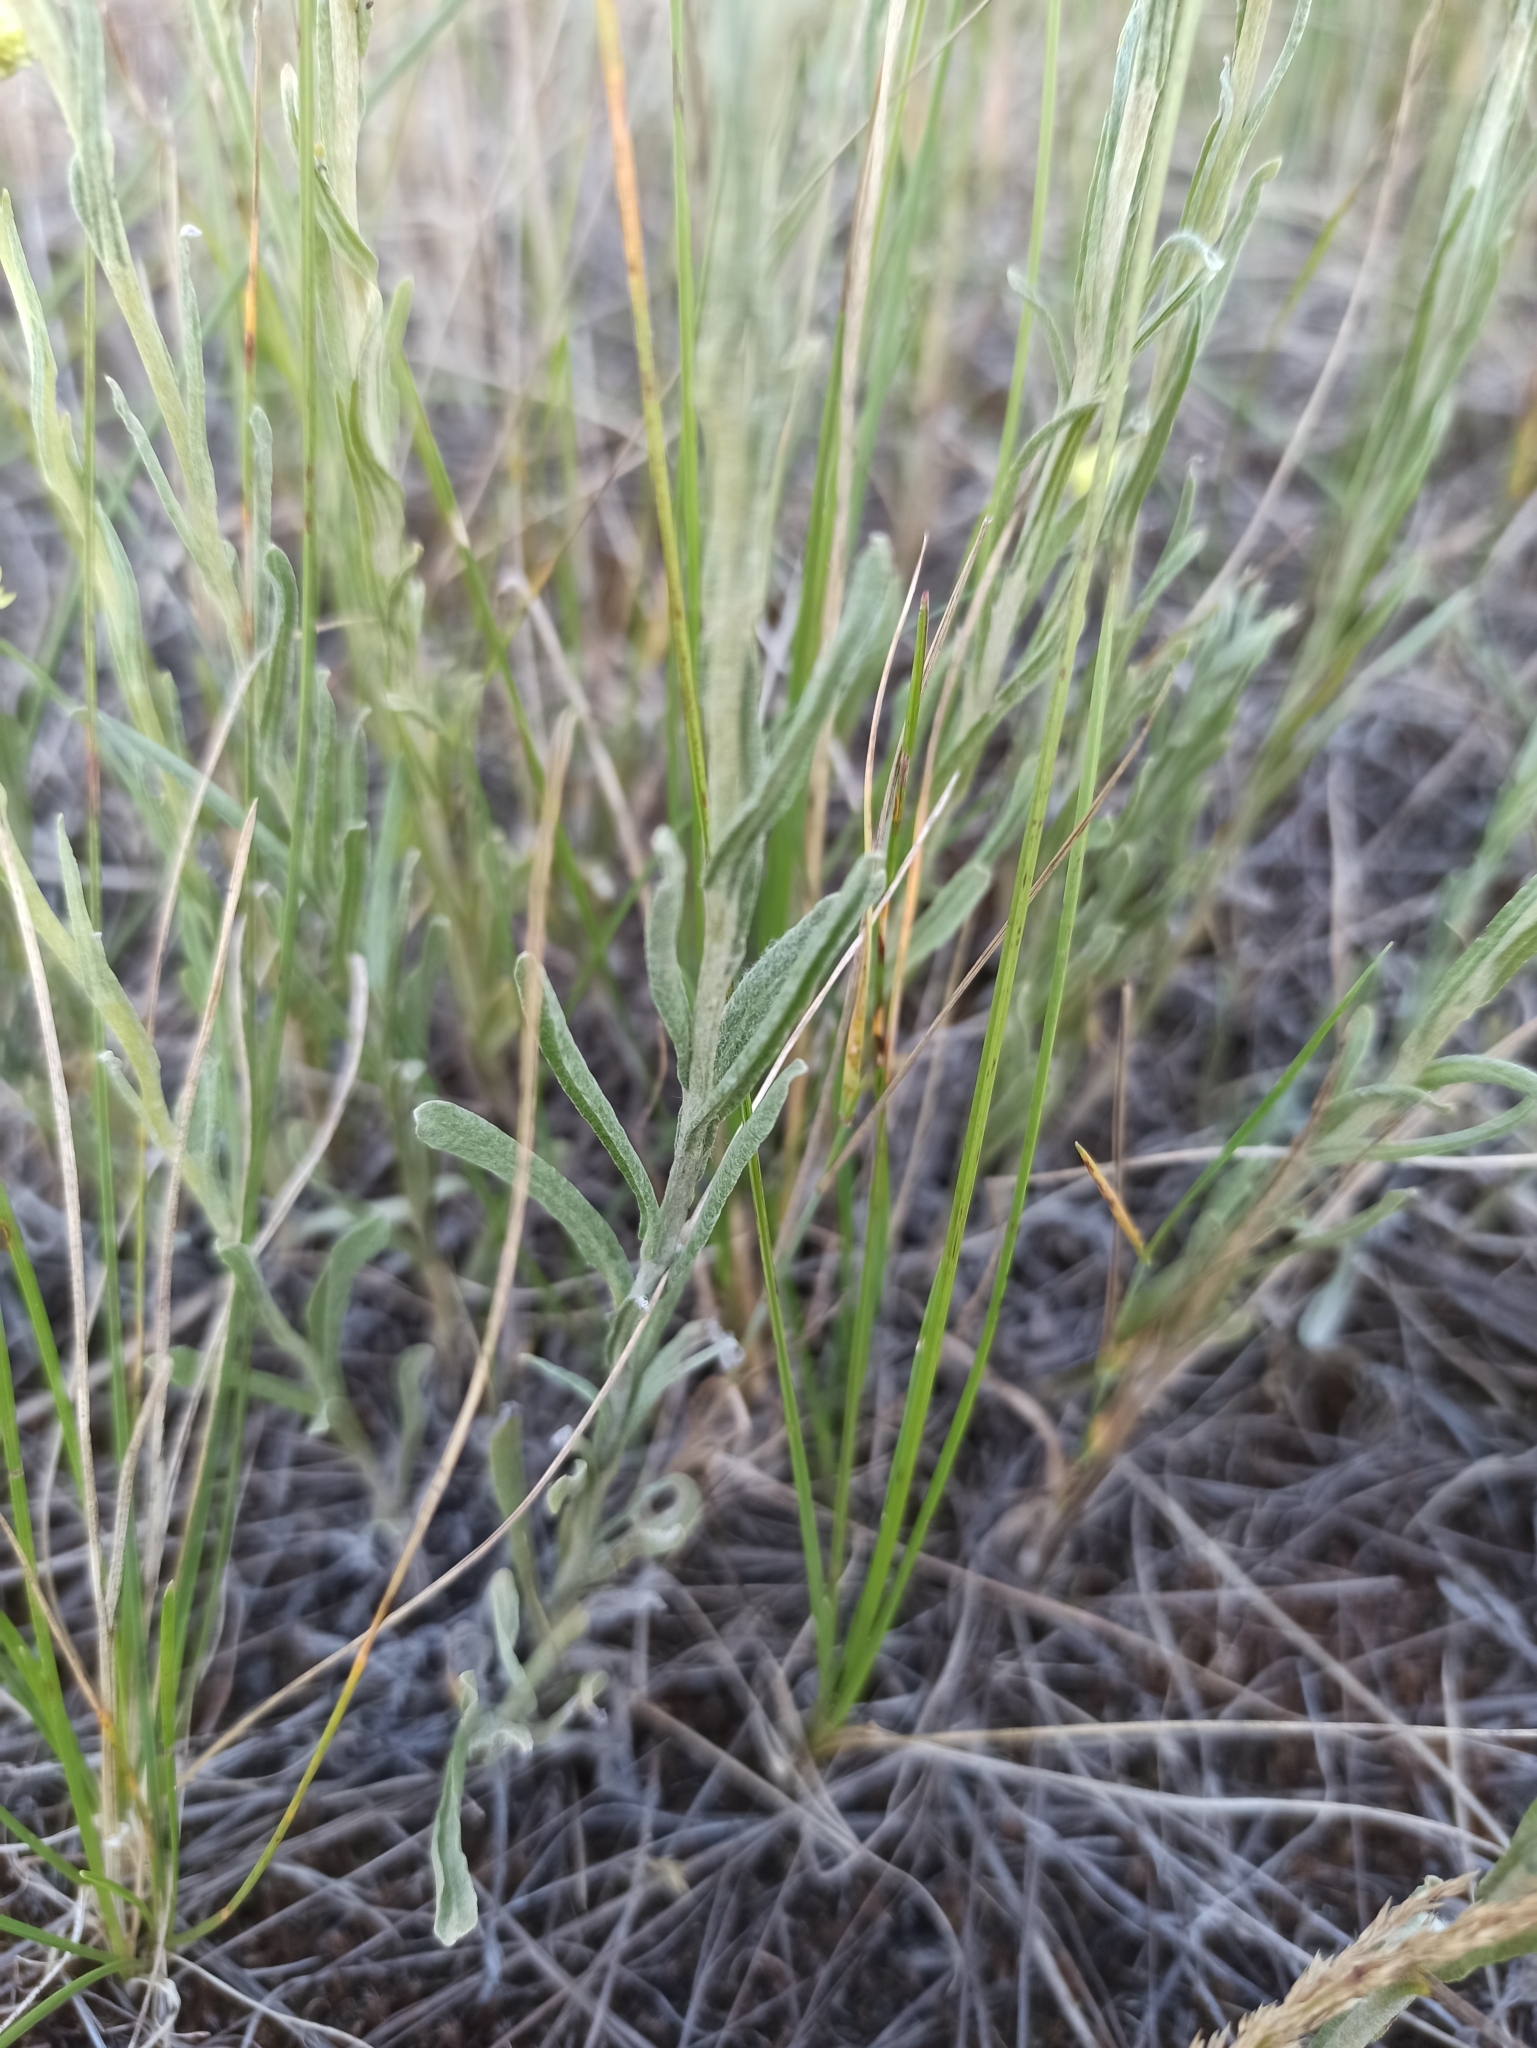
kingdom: Plantae
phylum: Tracheophyta
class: Magnoliopsida
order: Asterales
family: Asteraceae
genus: Helichrysum
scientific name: Helichrysum arenarium
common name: Strawflower
